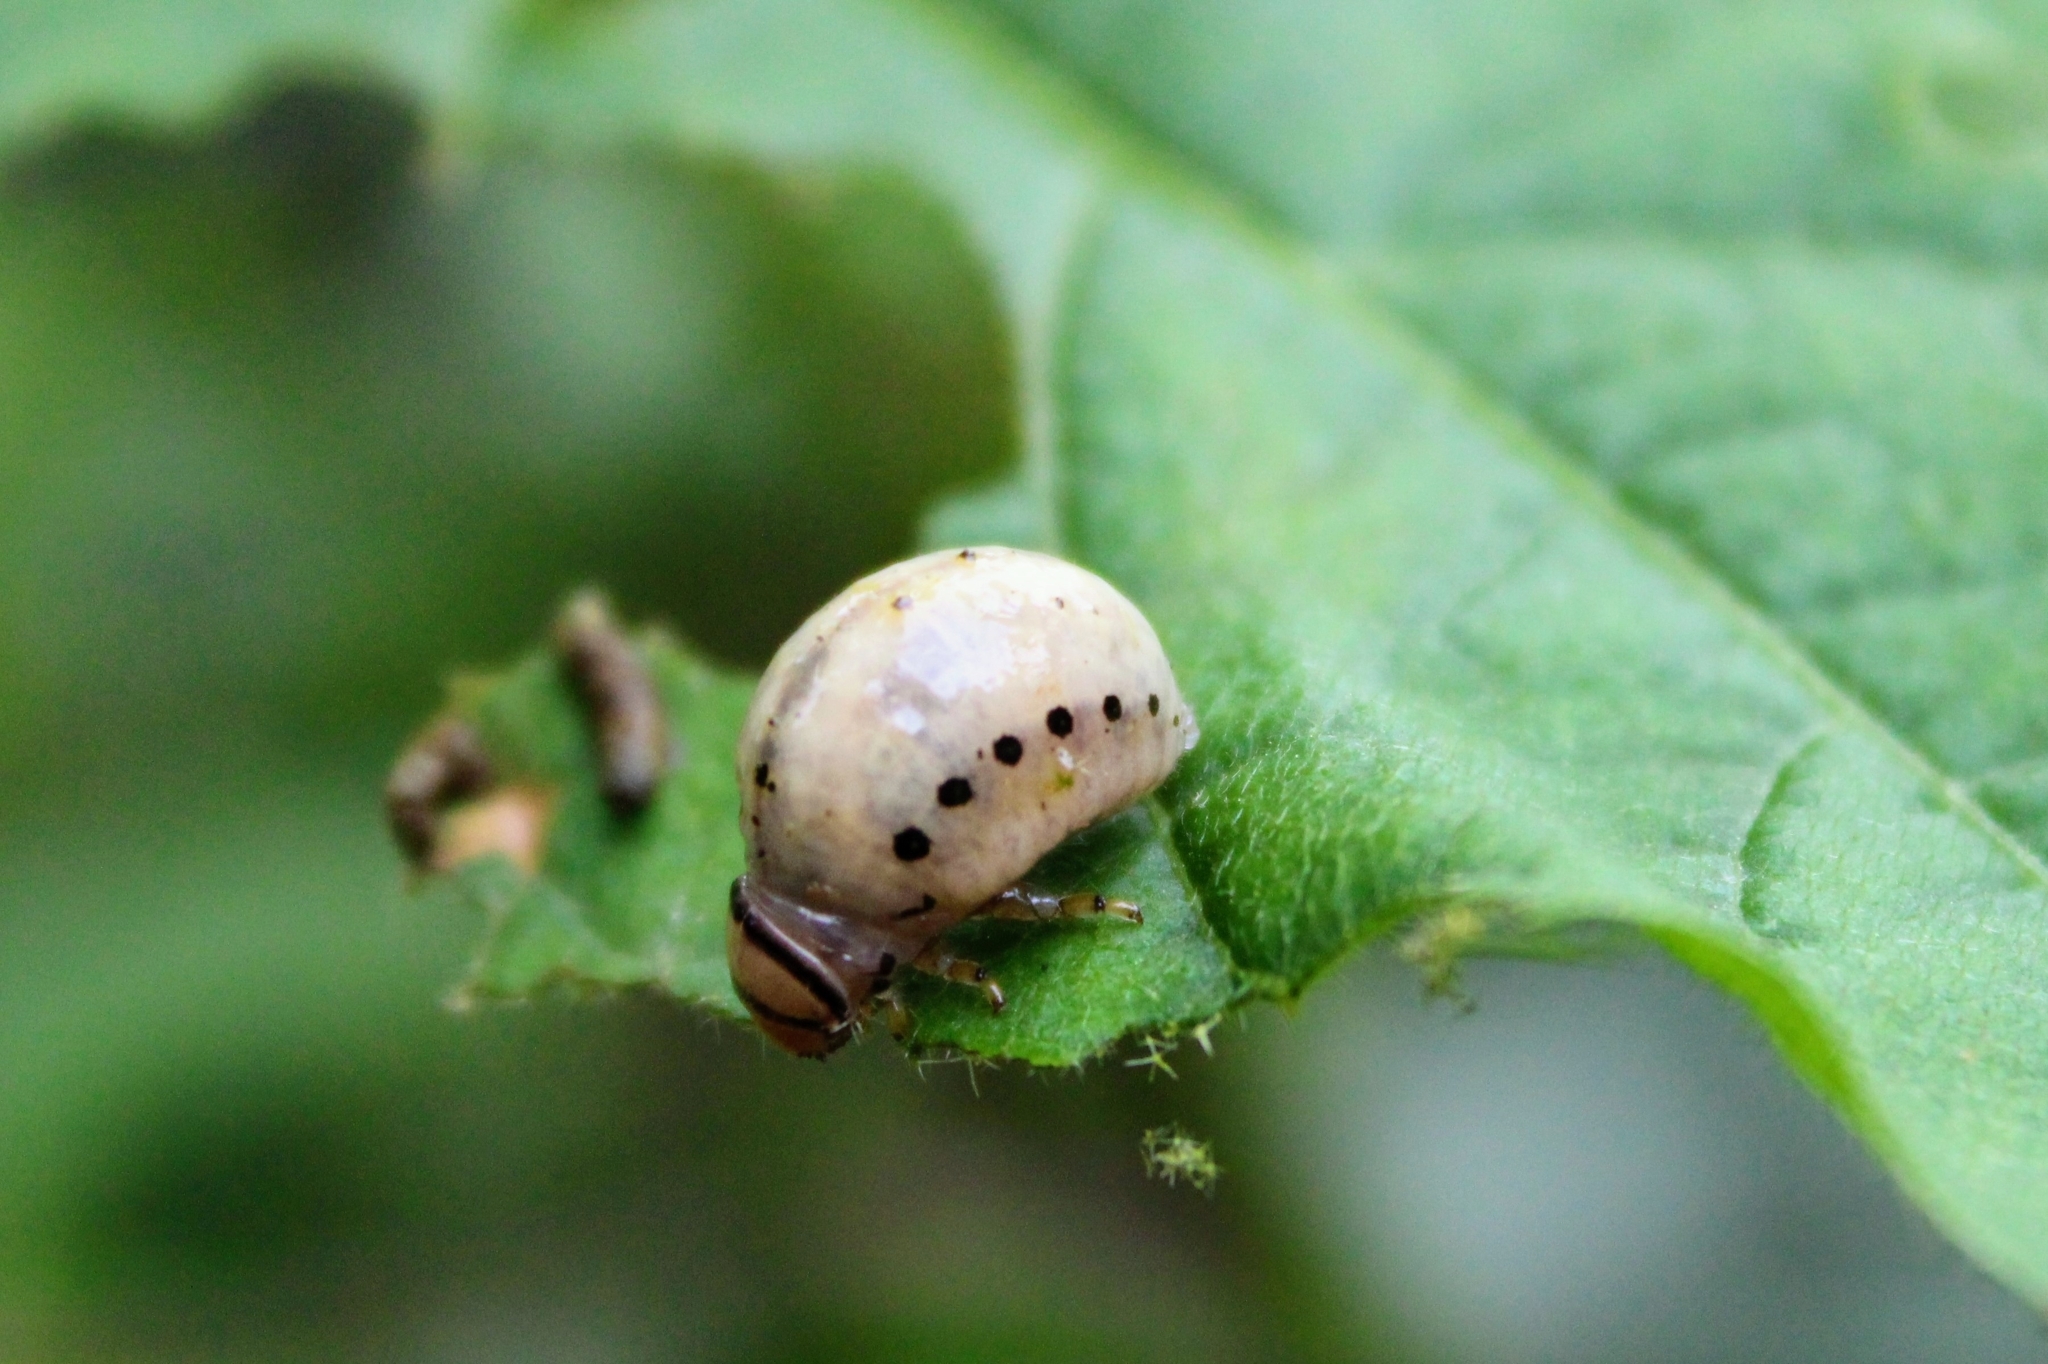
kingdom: Animalia
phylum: Arthropoda
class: Insecta
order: Coleoptera
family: Chrysomelidae
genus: Leptinotarsa
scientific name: Leptinotarsa juncta
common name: False potato beetle
